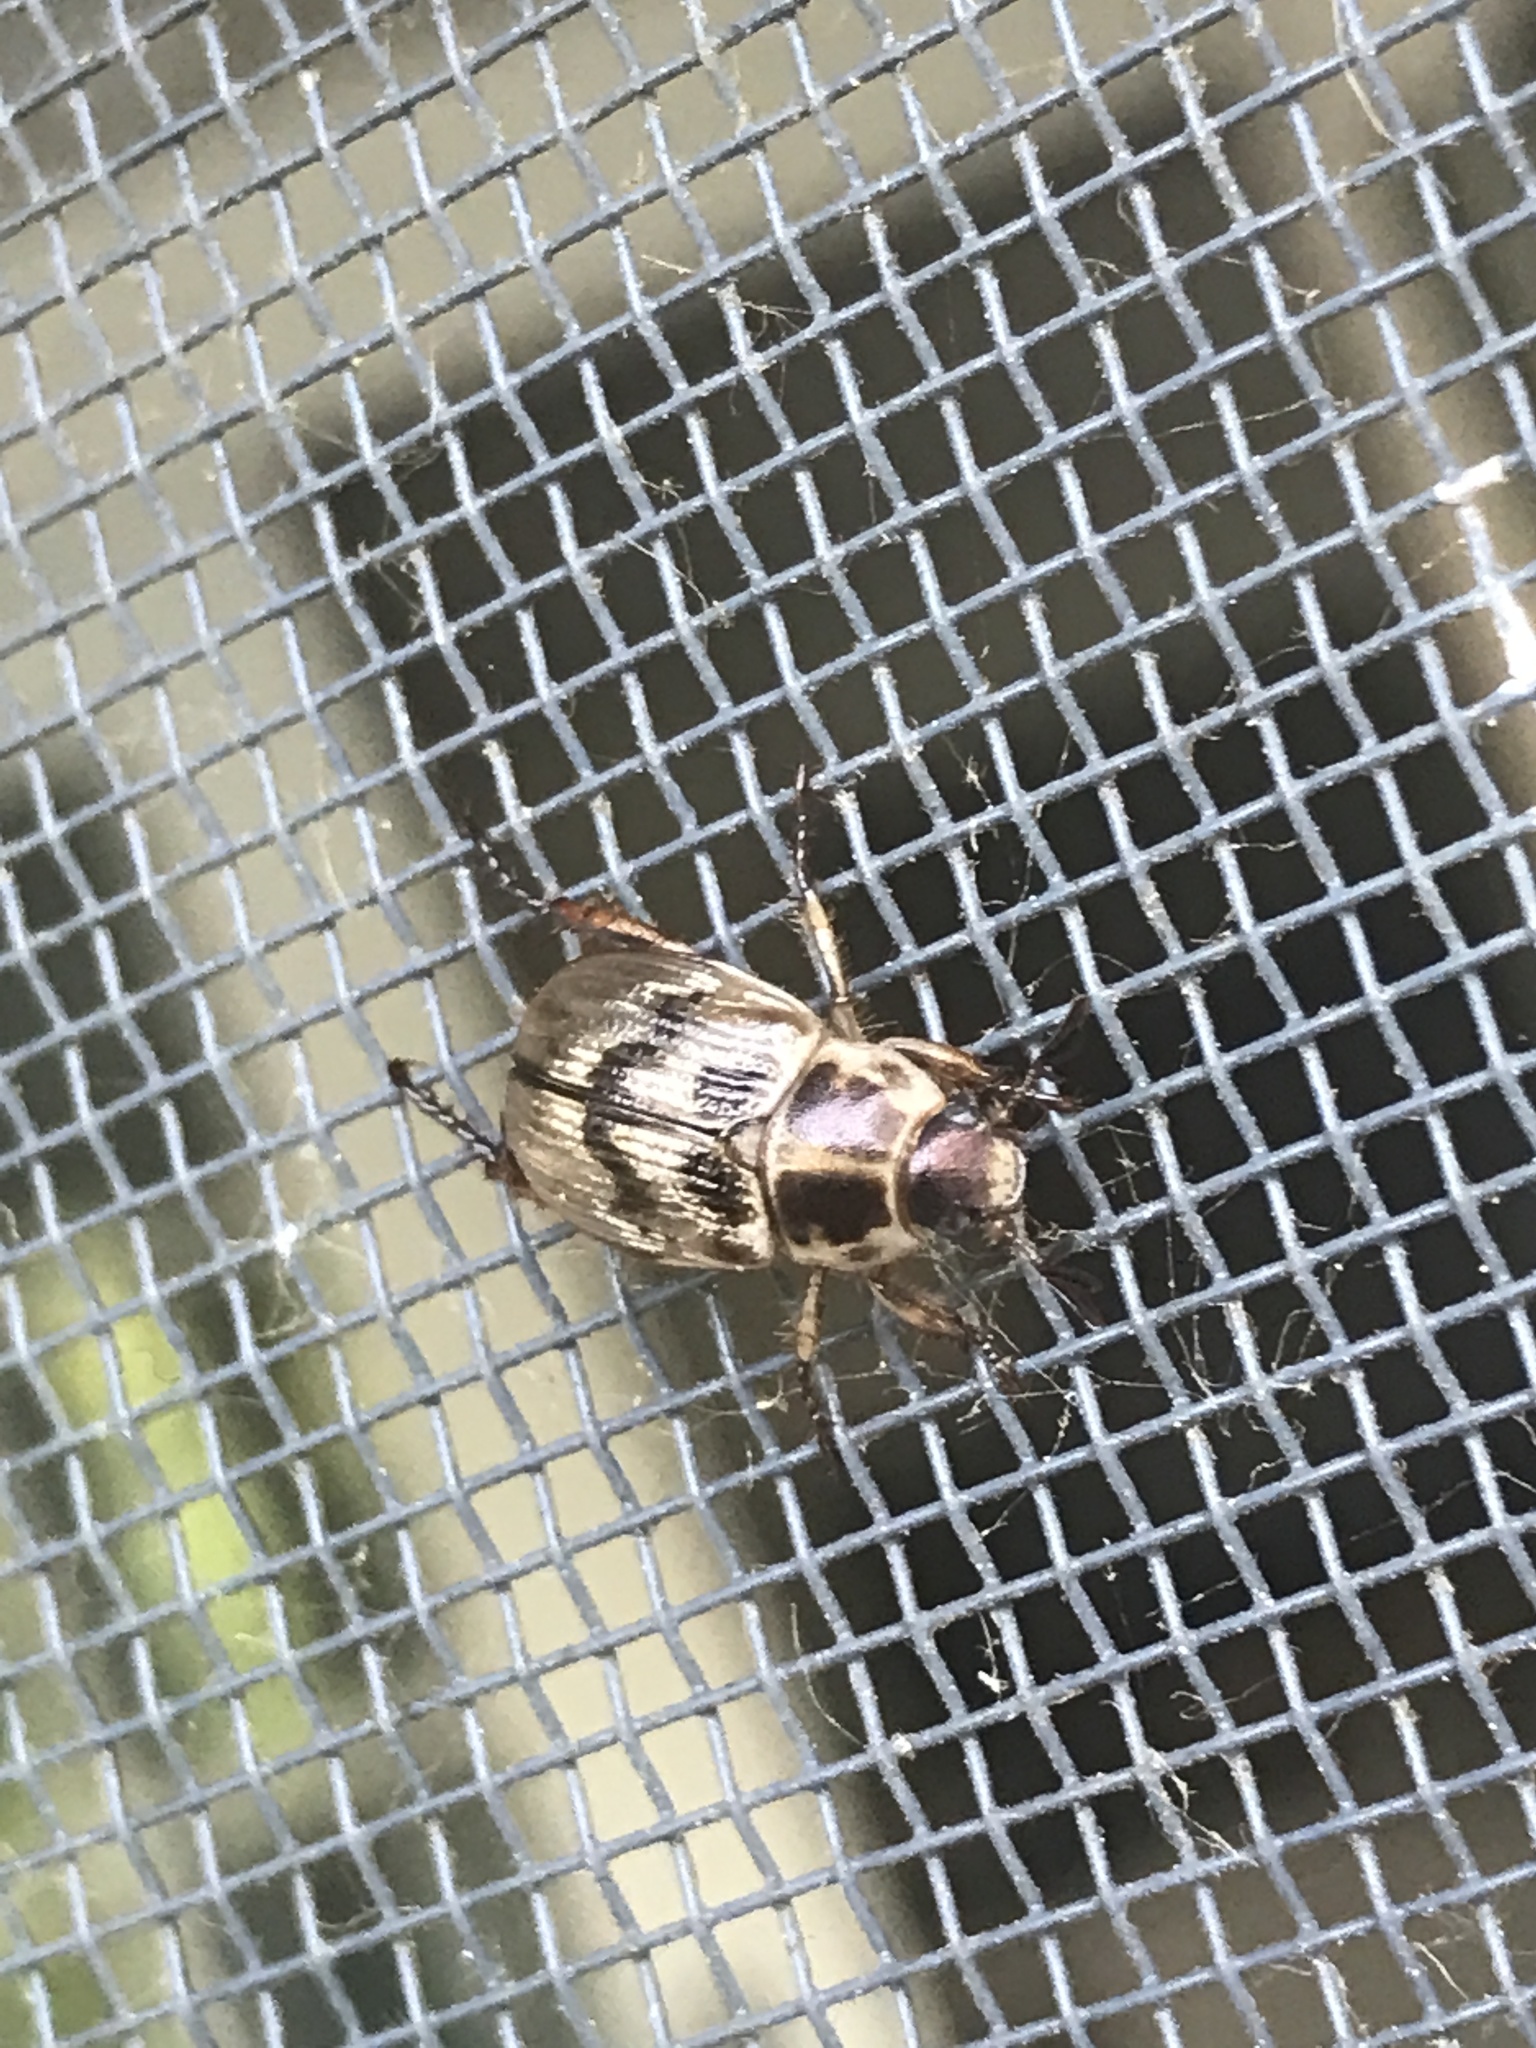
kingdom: Animalia
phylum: Arthropoda
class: Insecta
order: Coleoptera
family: Scarabaeidae
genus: Exomala
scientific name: Exomala orientalis
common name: Oriental beetle
